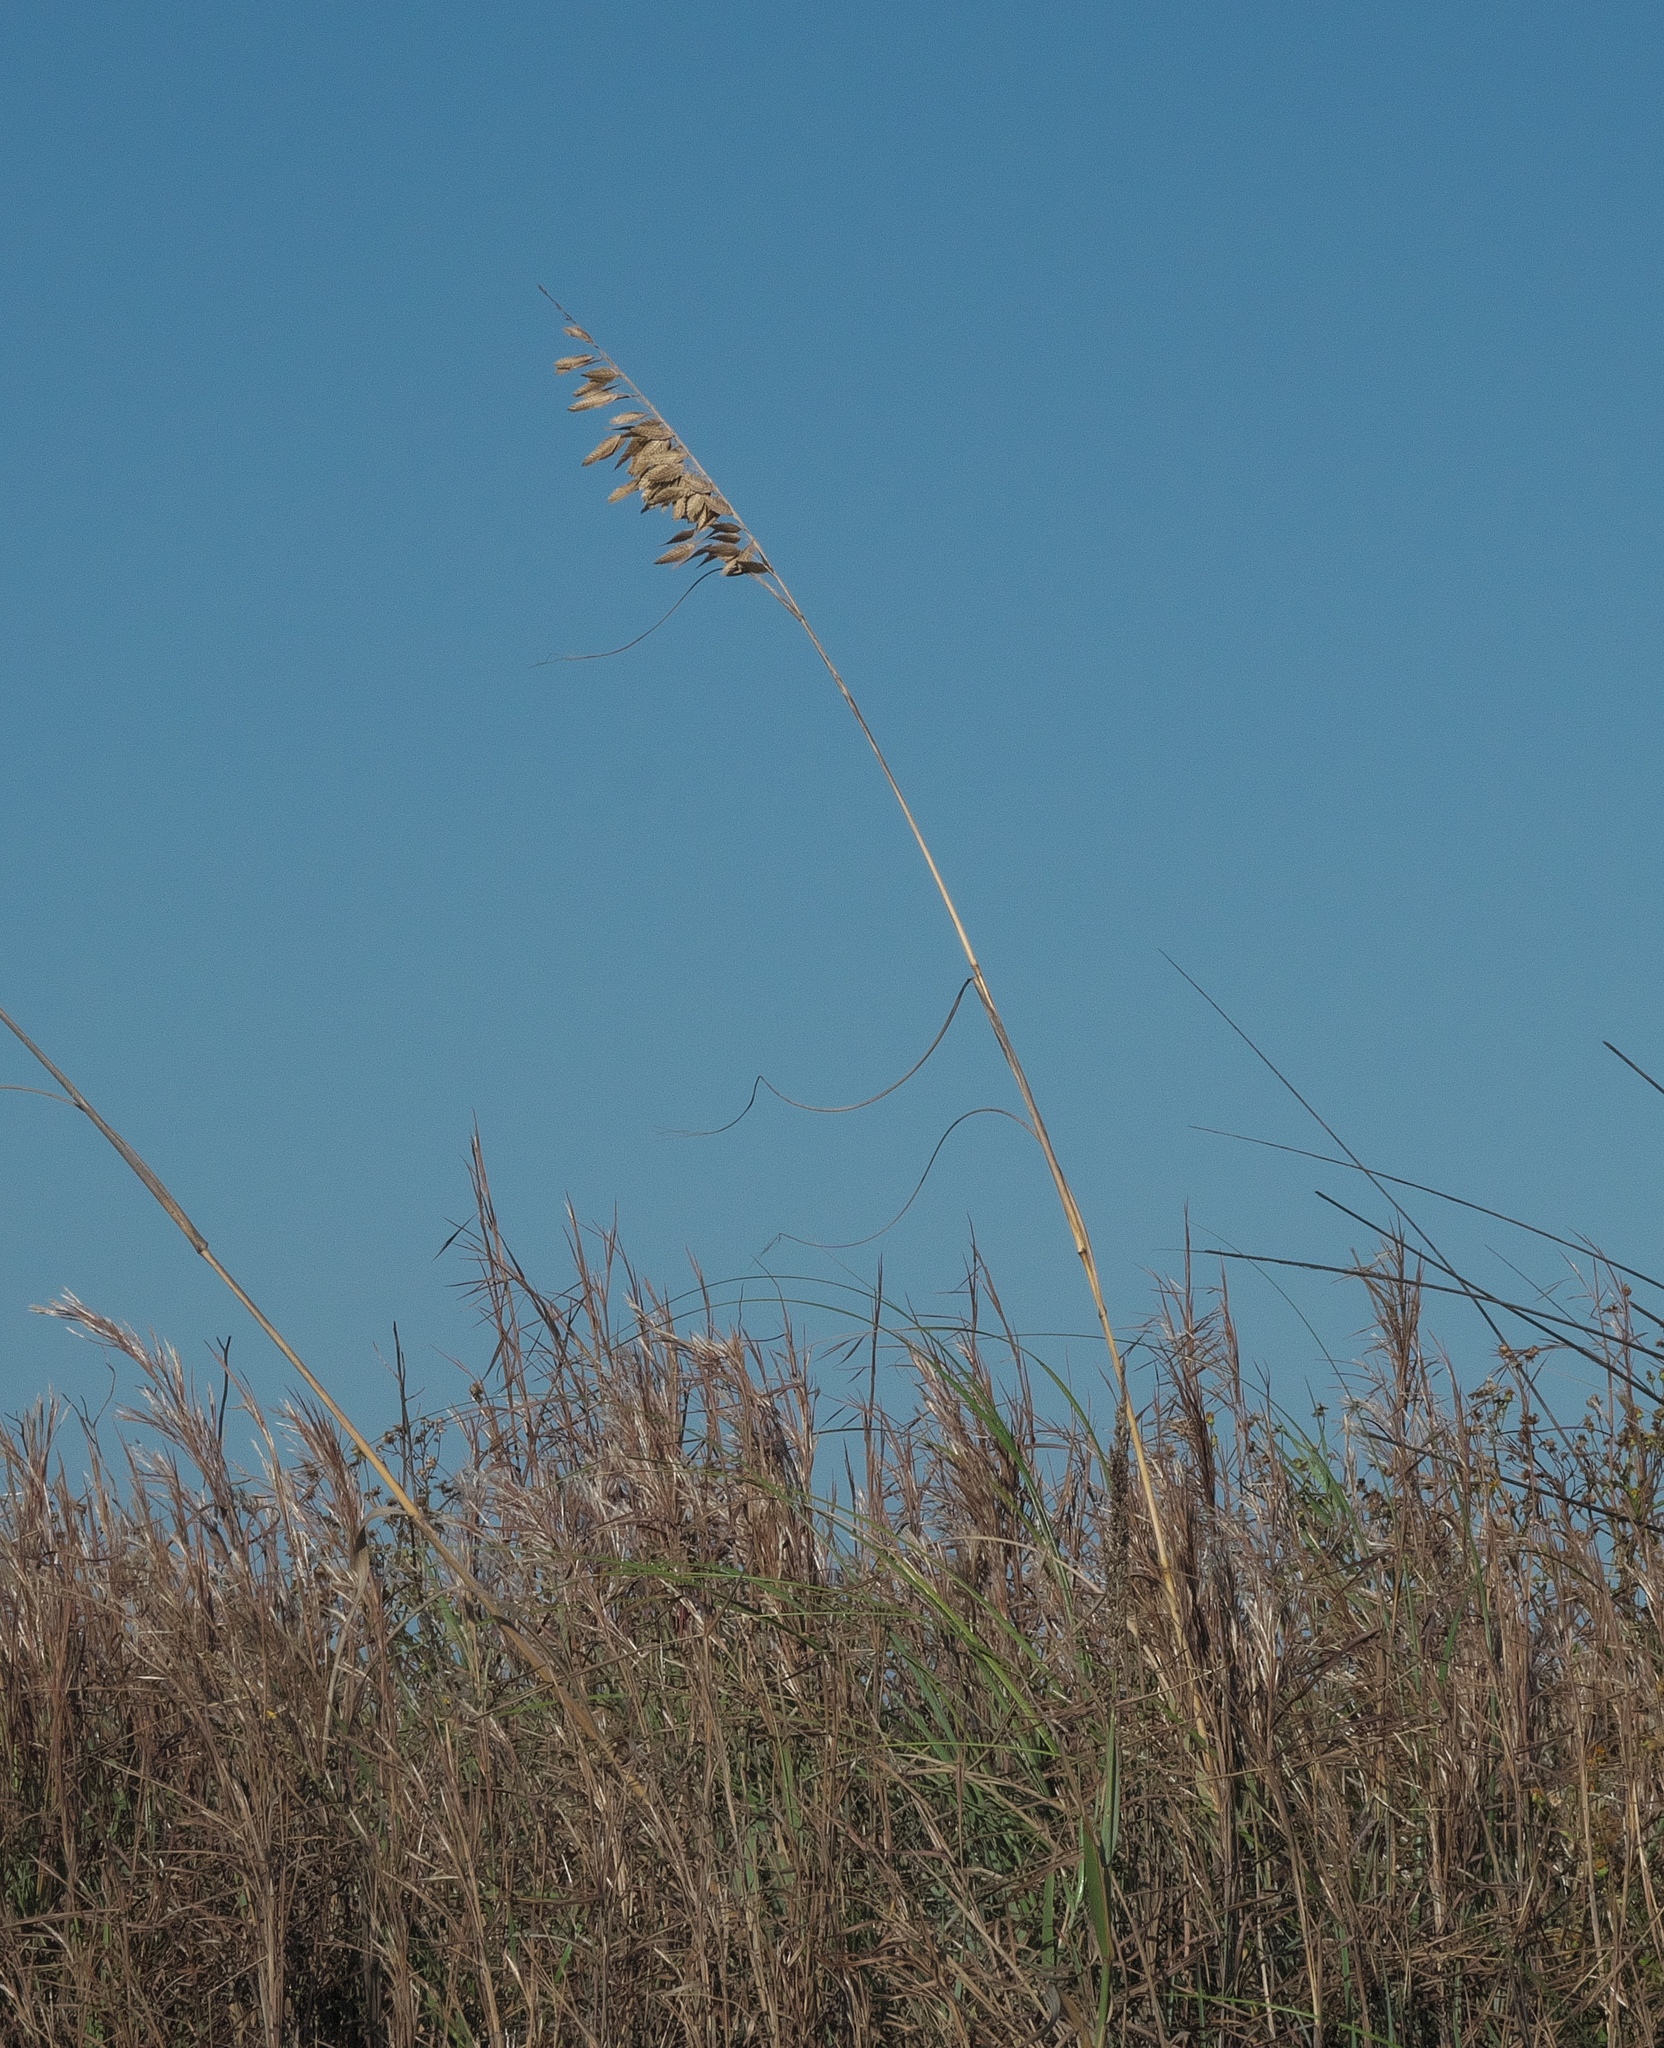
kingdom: Plantae
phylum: Tracheophyta
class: Liliopsida
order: Poales
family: Poaceae
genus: Uniola
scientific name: Uniola paniculata
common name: Seaside-oats
